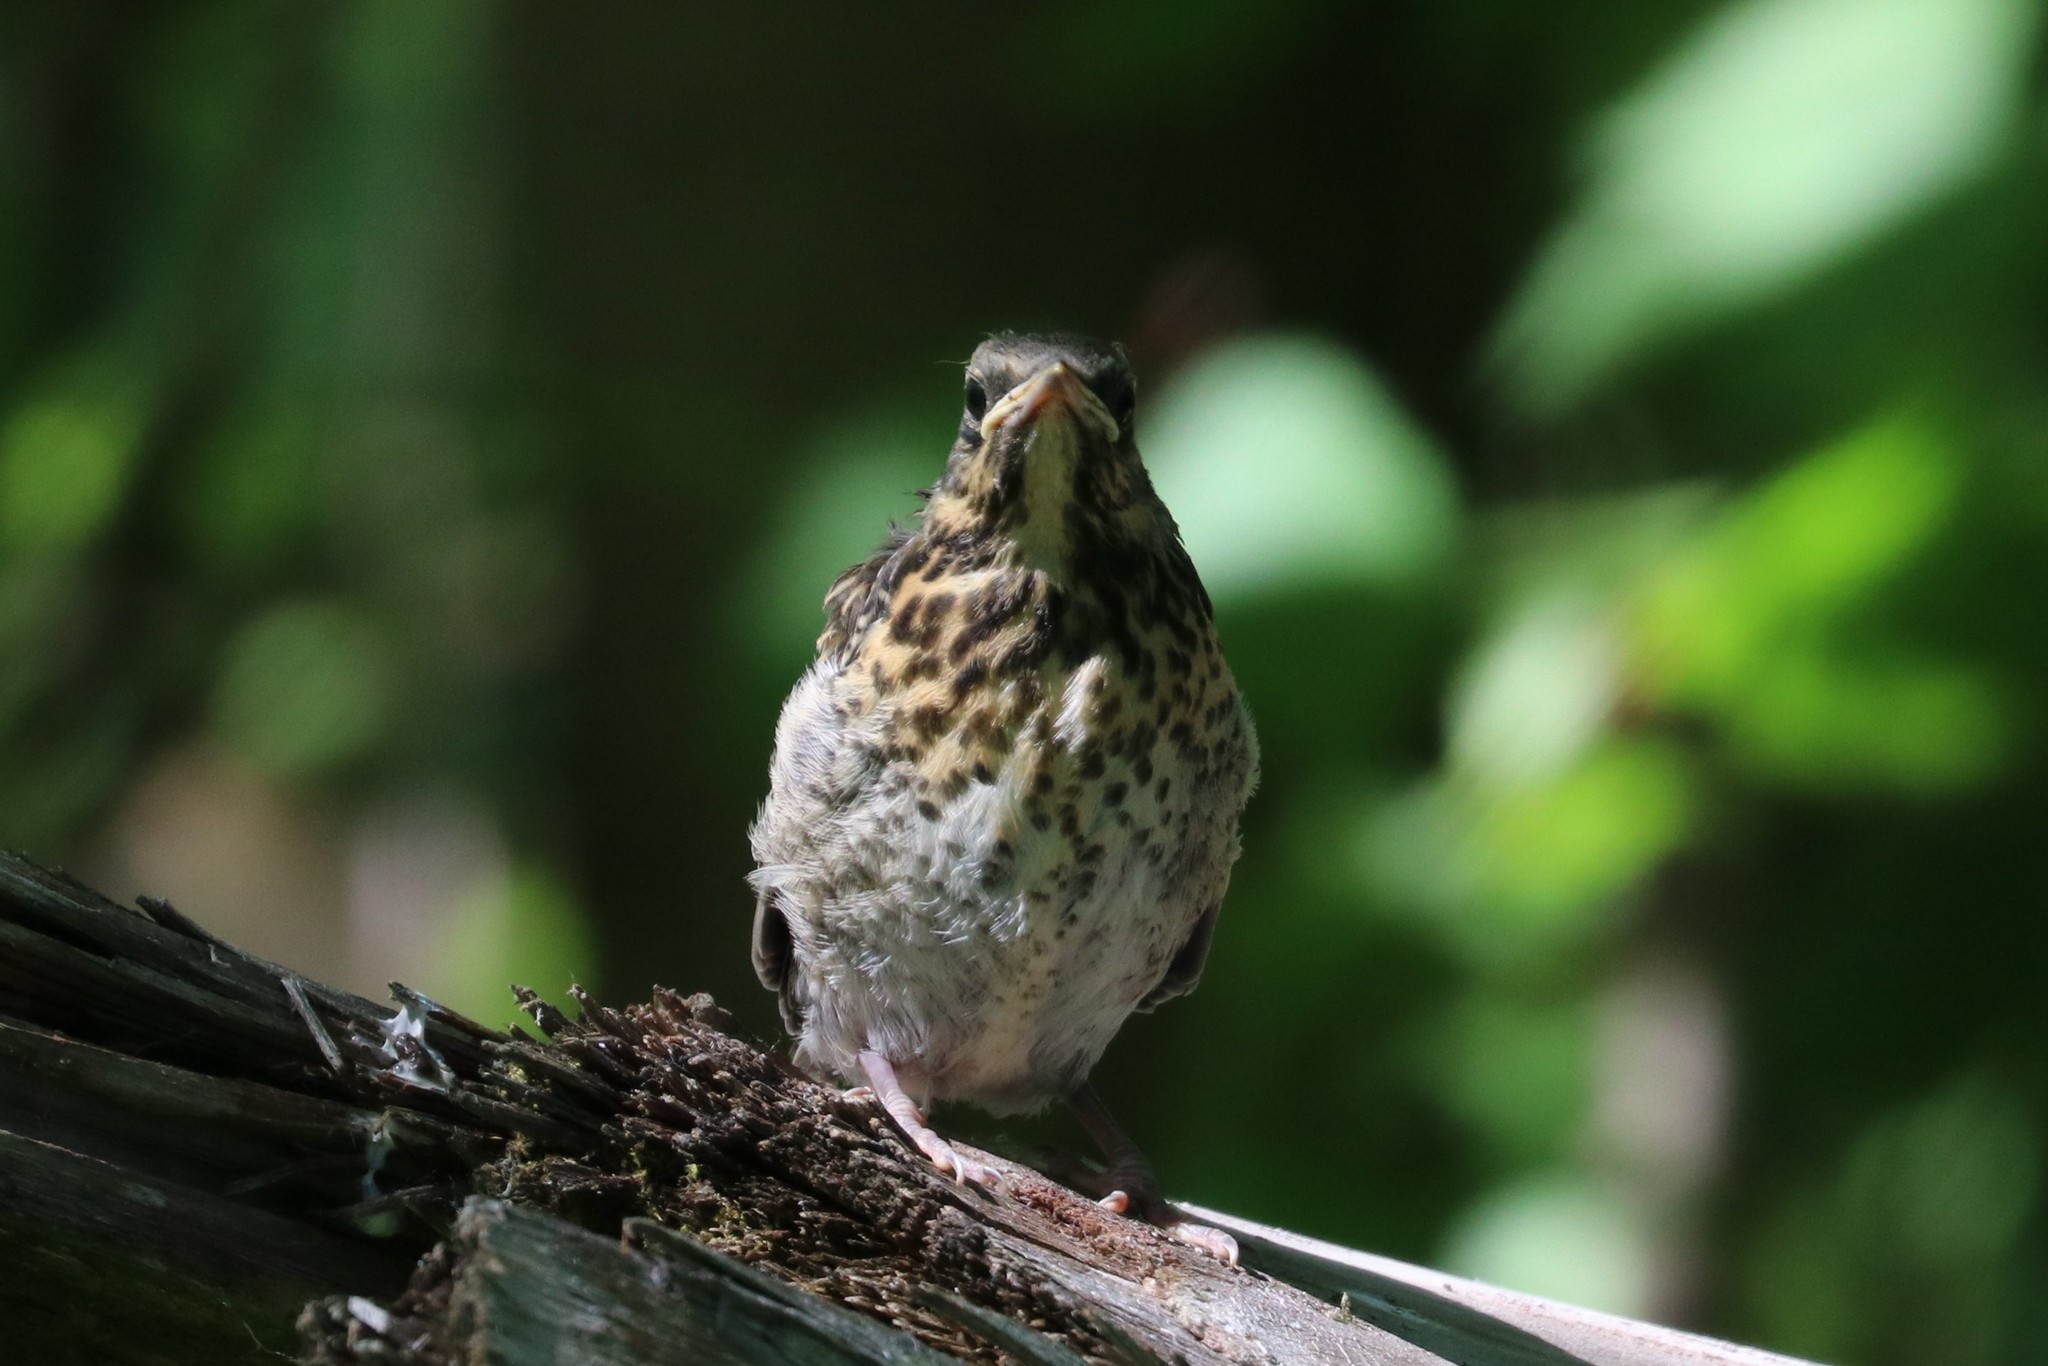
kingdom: Animalia
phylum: Chordata
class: Aves
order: Passeriformes
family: Turdidae
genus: Turdus
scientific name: Turdus pilaris
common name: Fieldfare
